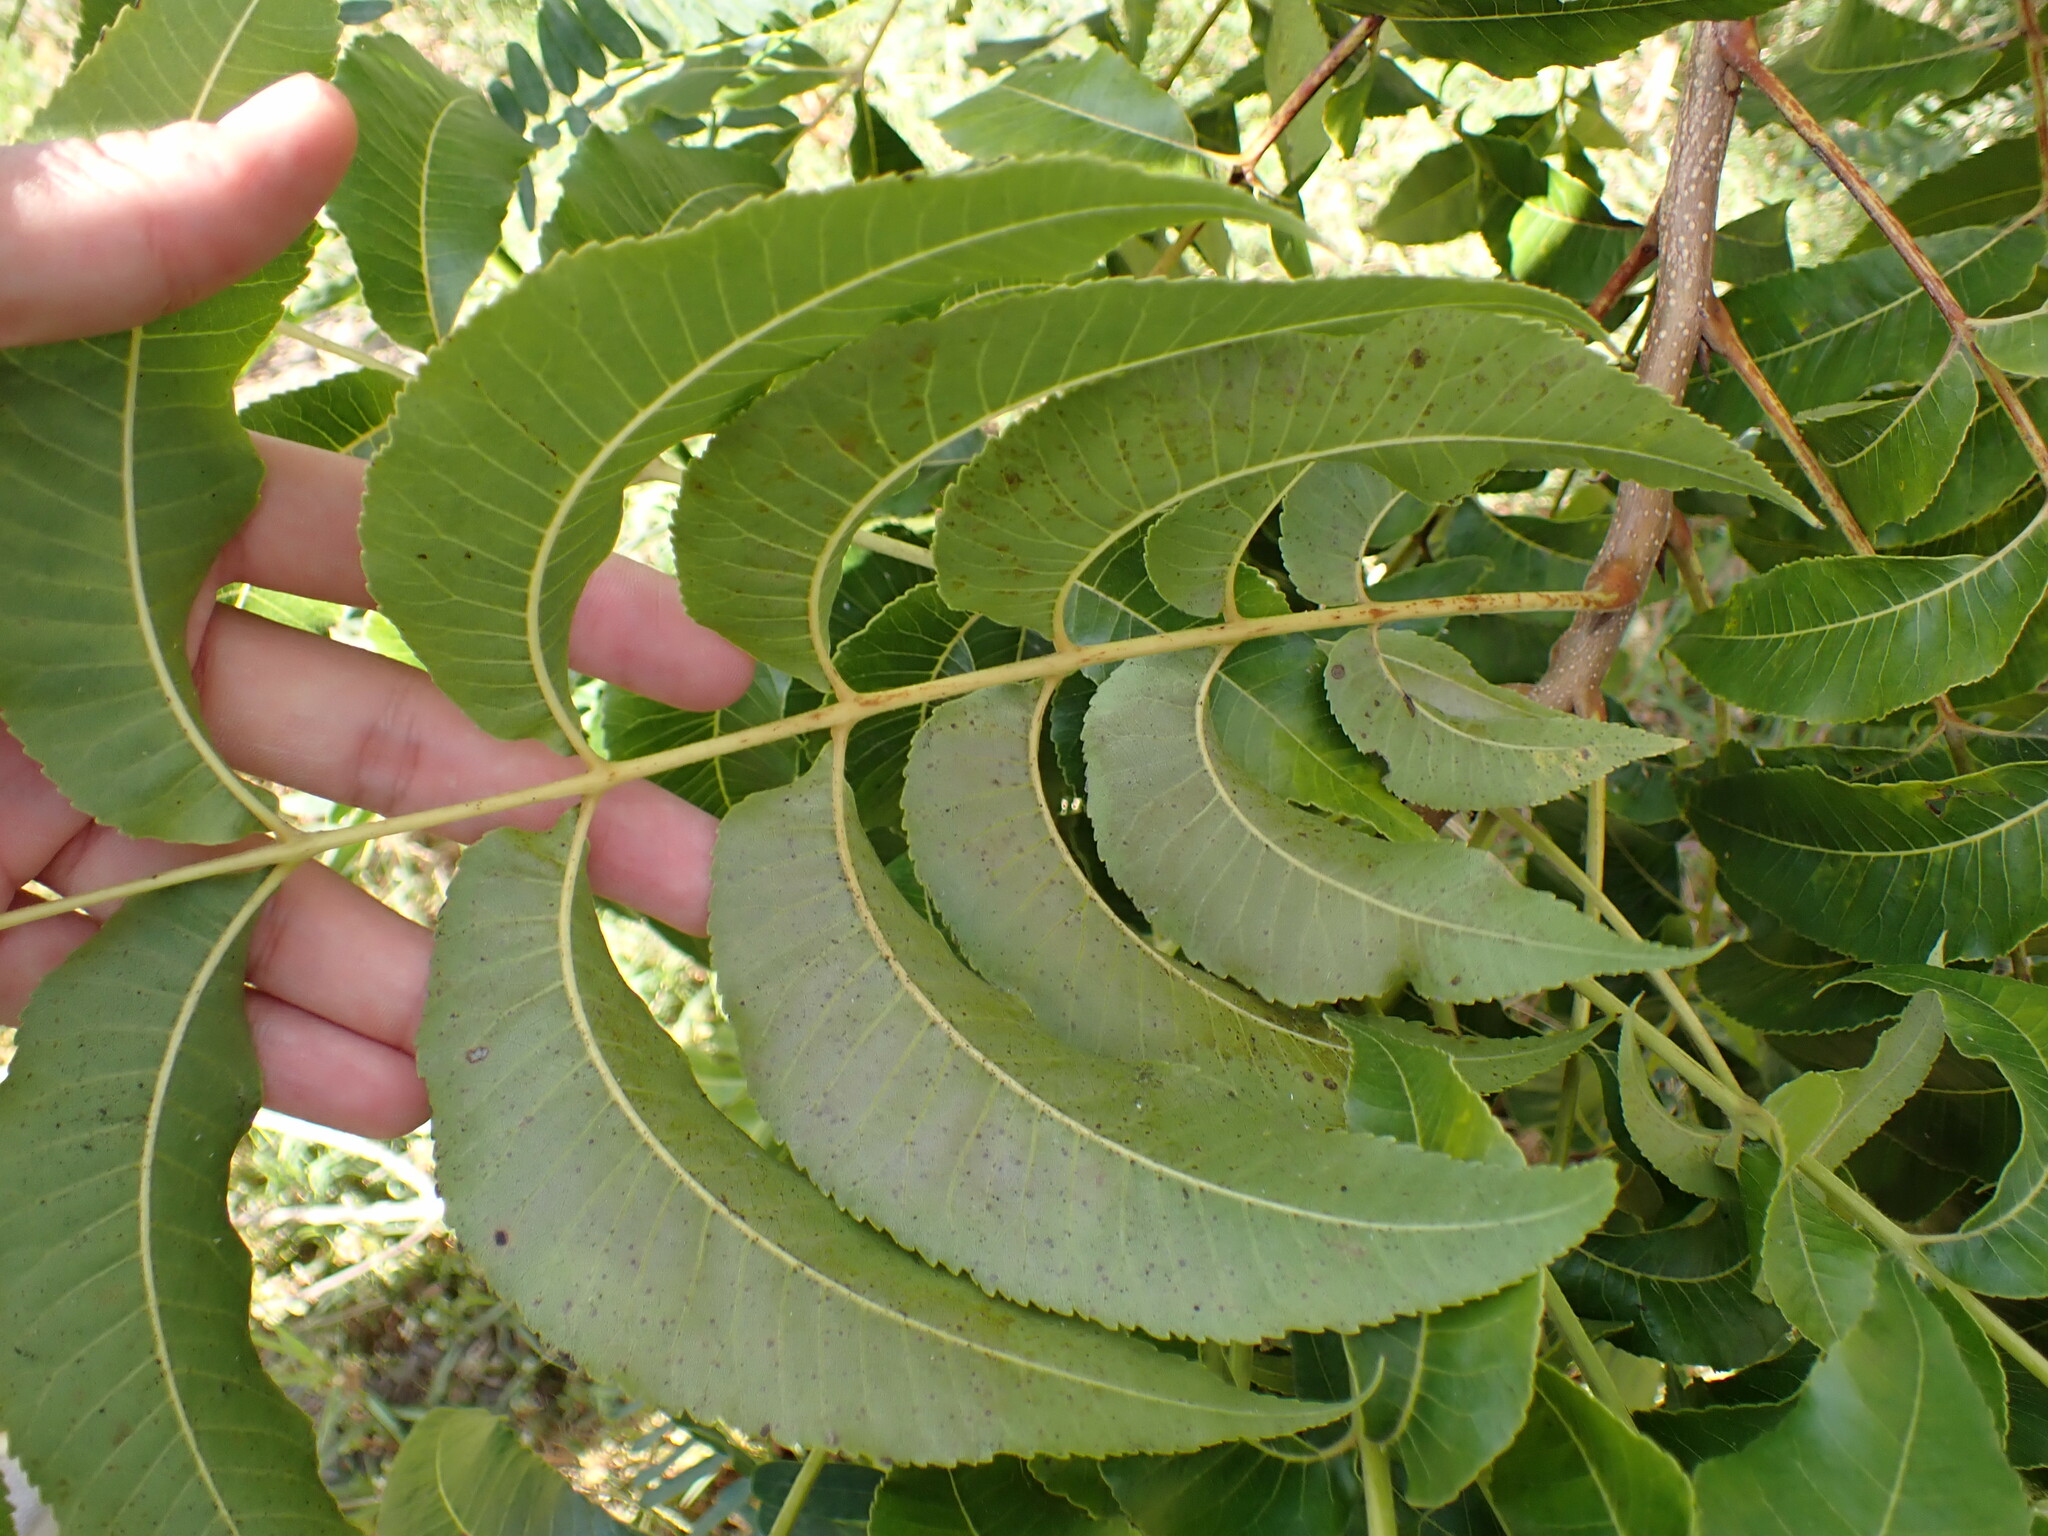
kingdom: Plantae
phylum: Tracheophyta
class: Magnoliopsida
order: Fagales
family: Juglandaceae
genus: Carya
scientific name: Carya illinoinensis
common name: Pecan
